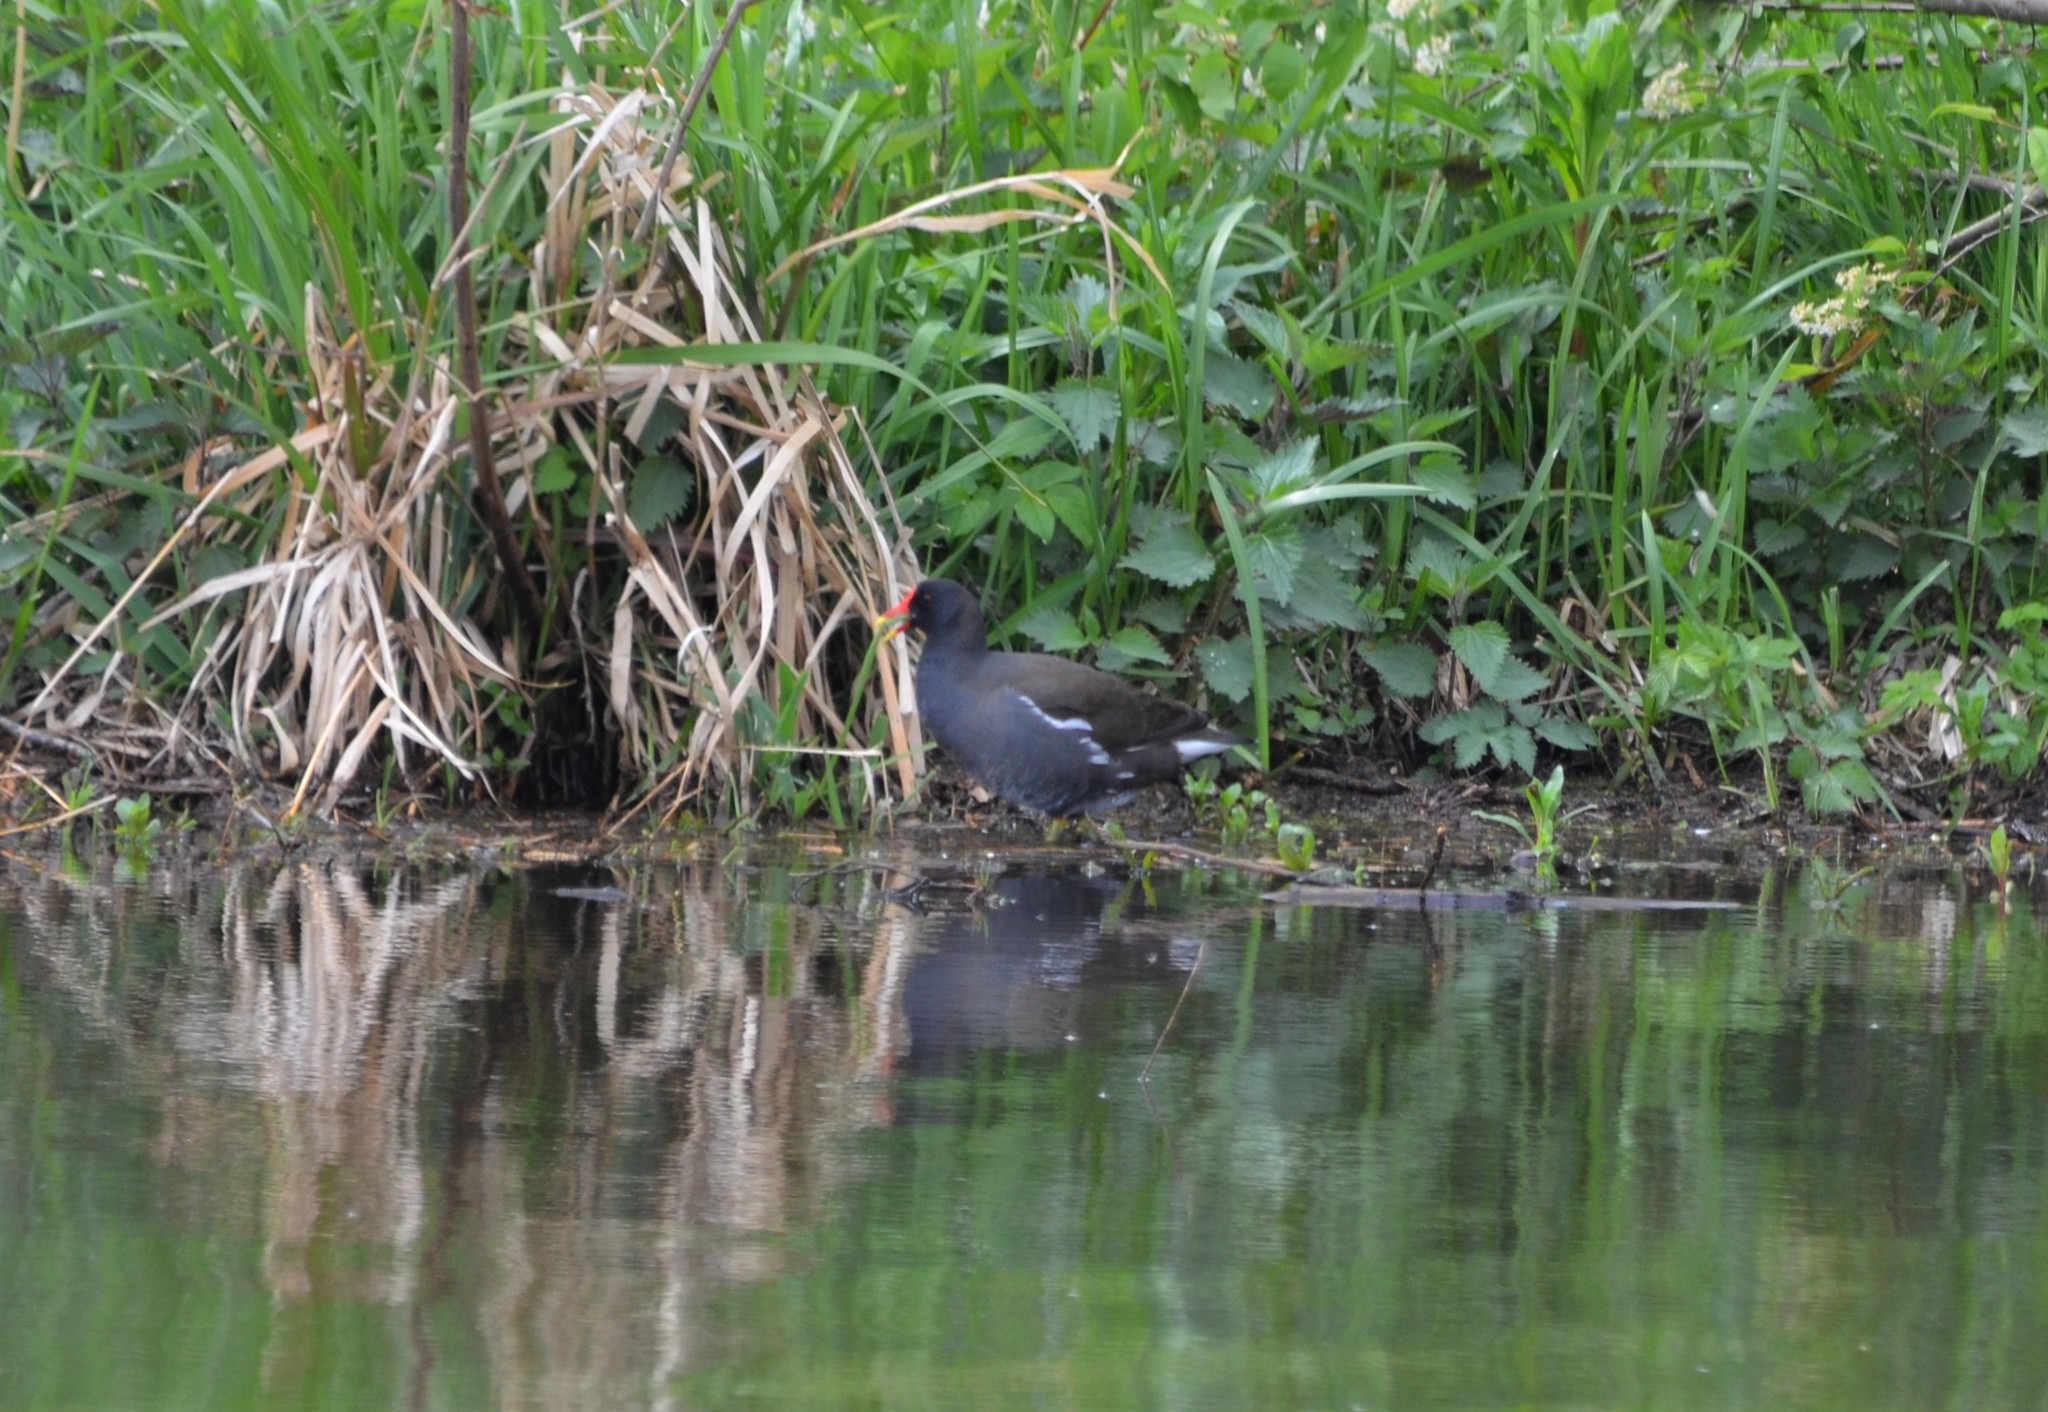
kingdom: Animalia
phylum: Chordata
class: Aves
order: Gruiformes
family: Rallidae
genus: Gallinula
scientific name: Gallinula chloropus
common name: Common moorhen
